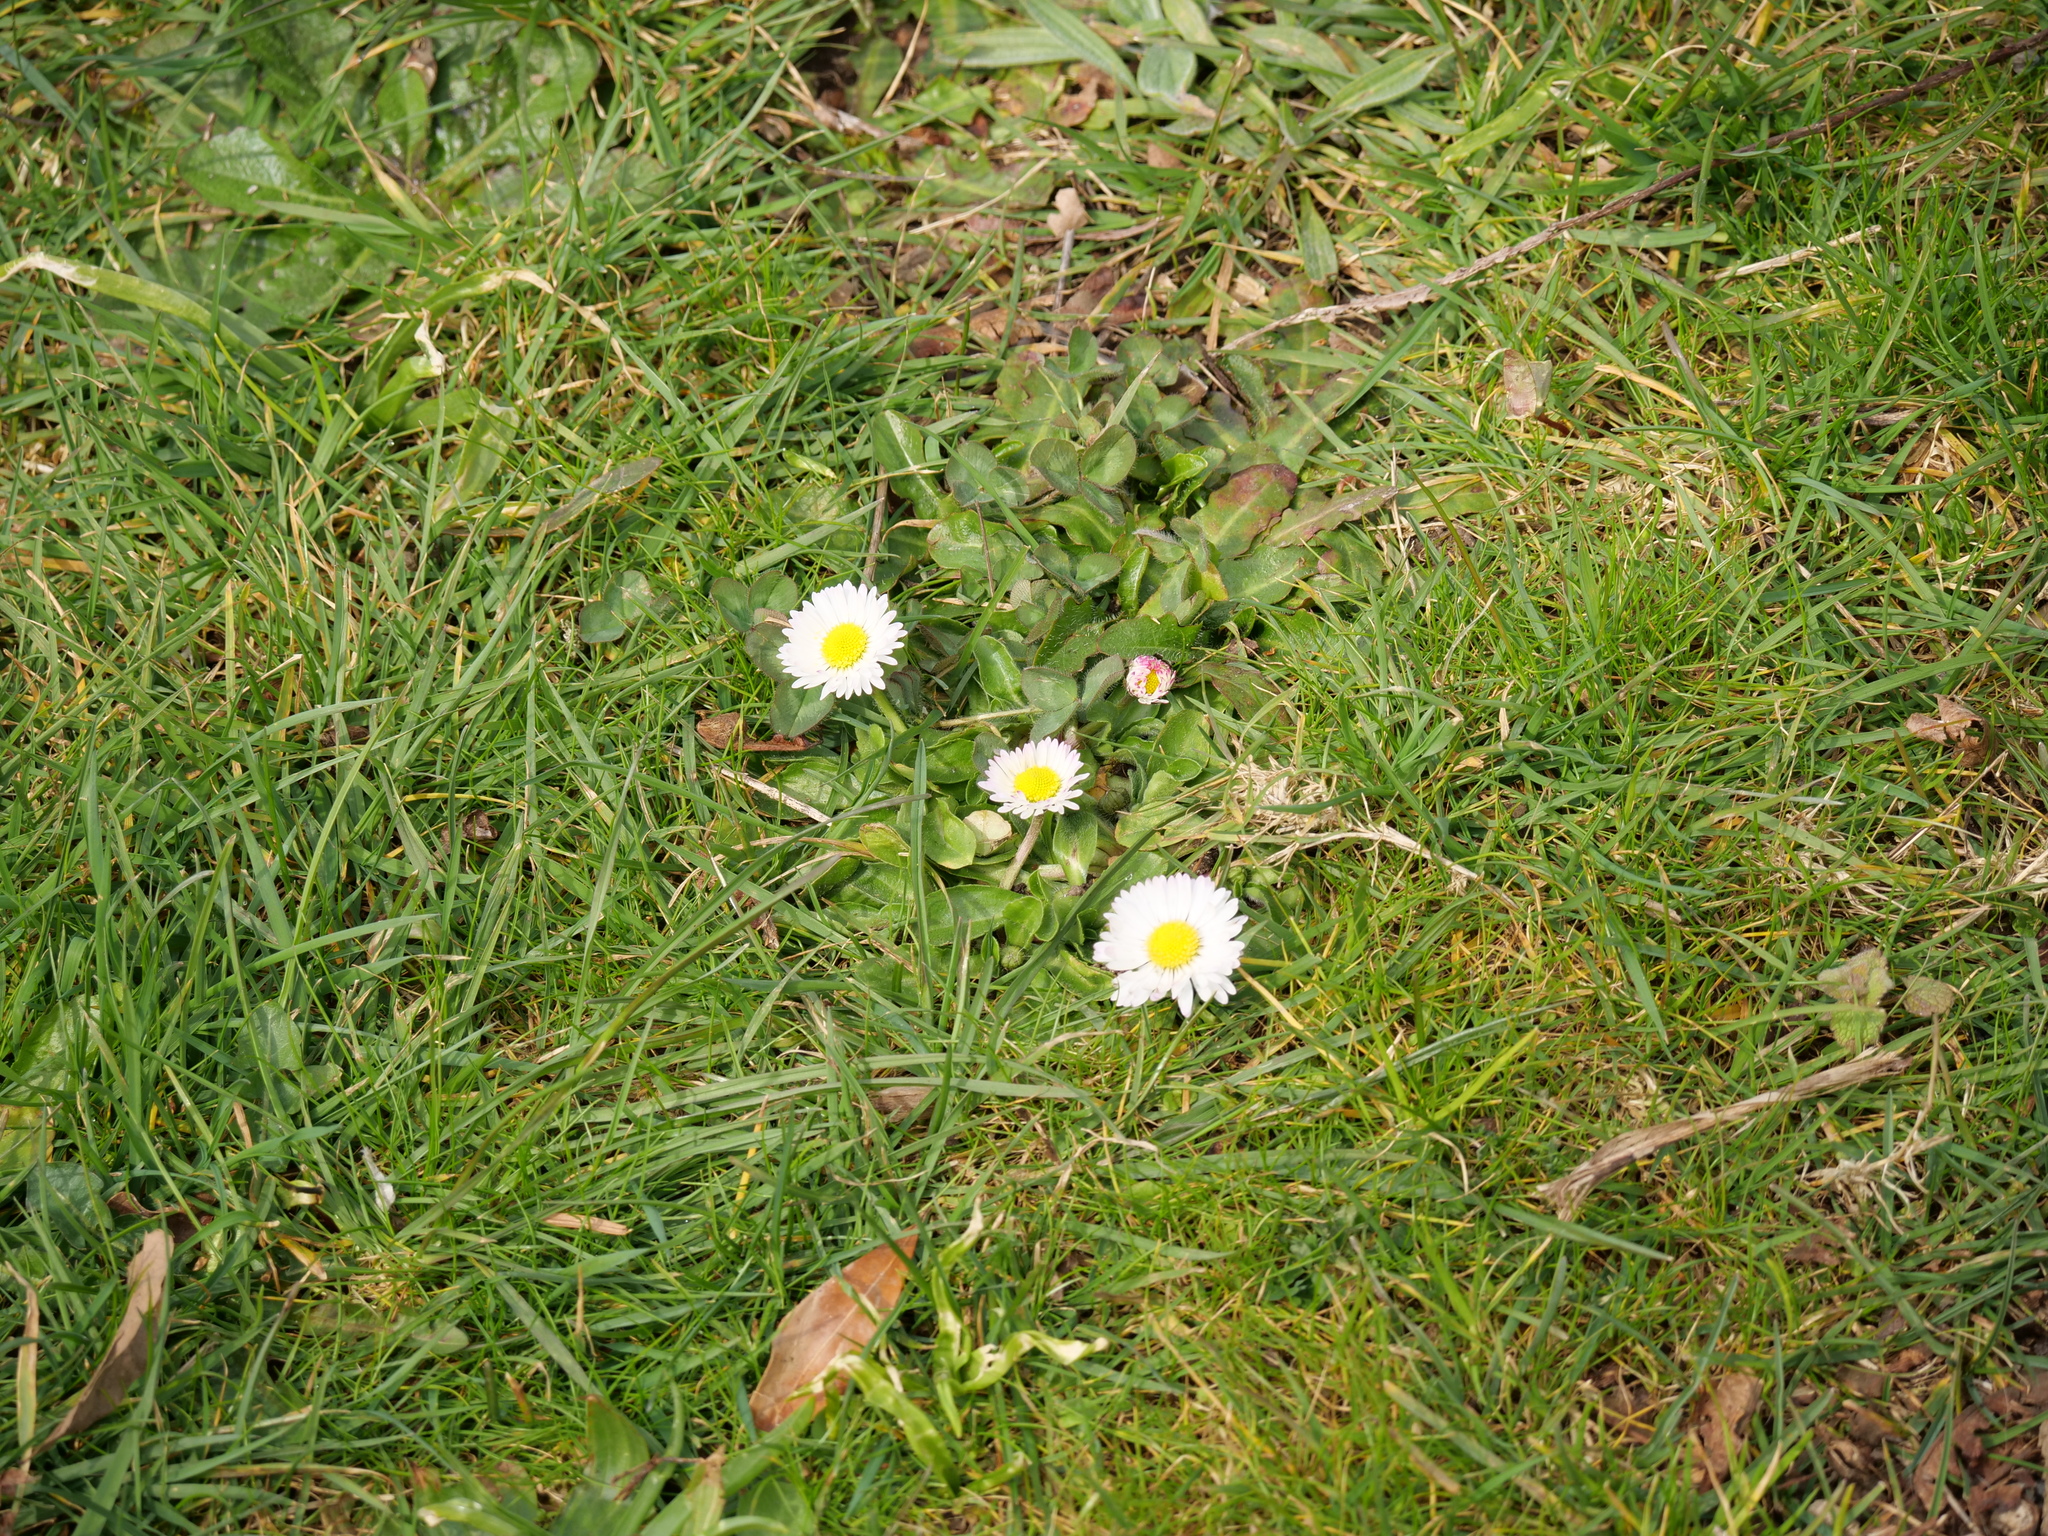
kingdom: Plantae
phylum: Tracheophyta
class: Magnoliopsida
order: Asterales
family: Asteraceae
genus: Bellis
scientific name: Bellis perennis
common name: Lawndaisy
